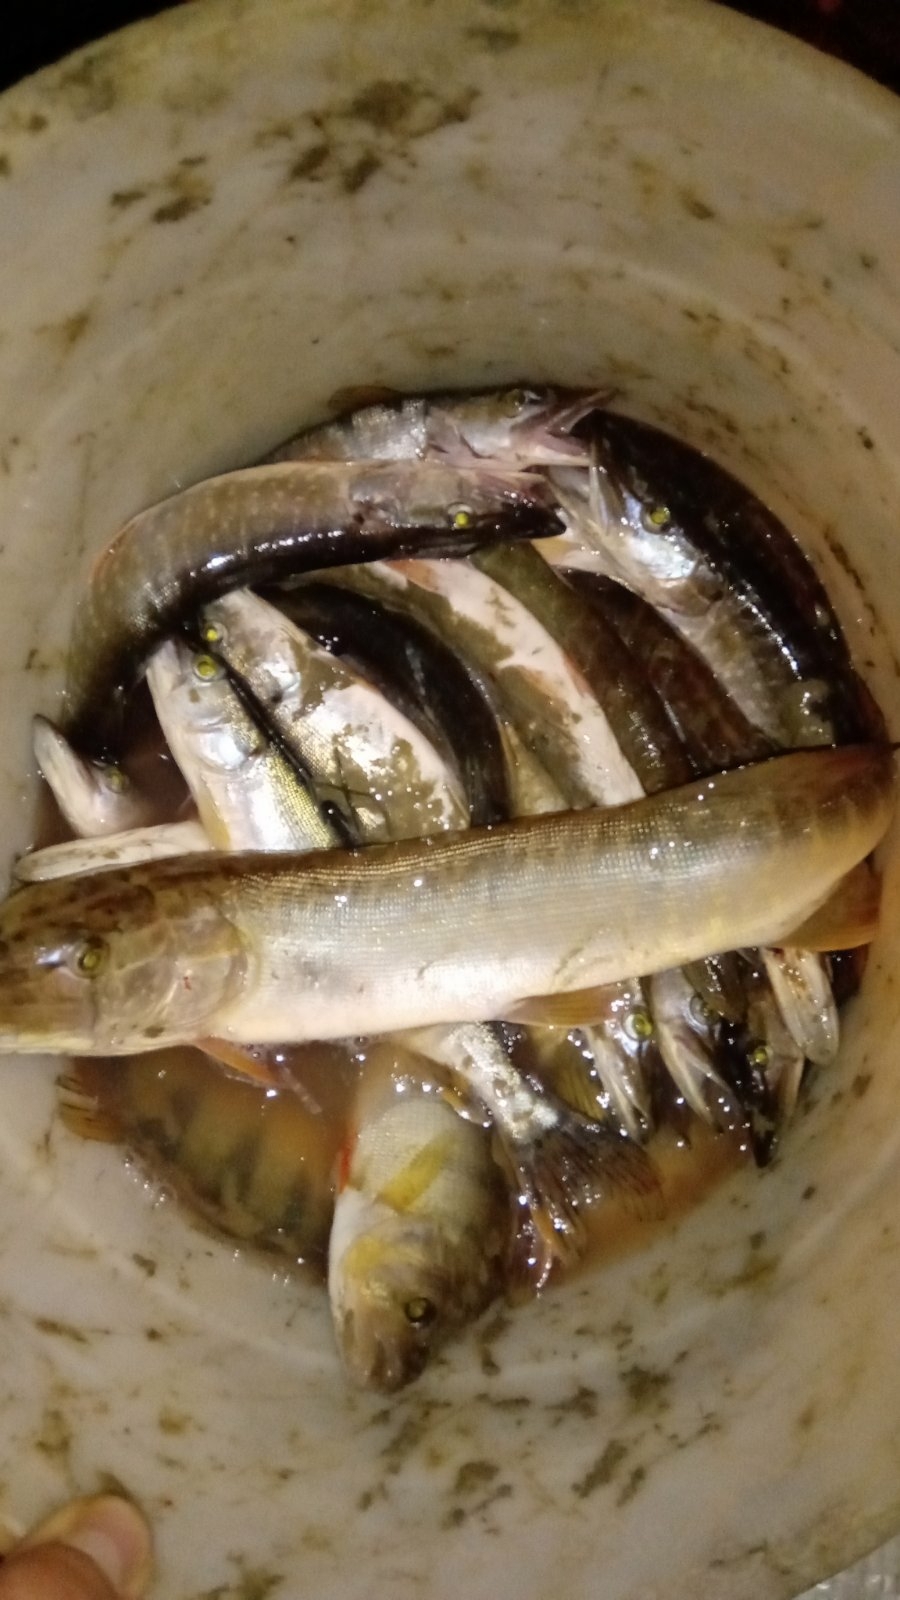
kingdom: Animalia
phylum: Chordata
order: Esociformes
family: Esocidae
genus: Esox
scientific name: Esox lucius
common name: Northern pike
